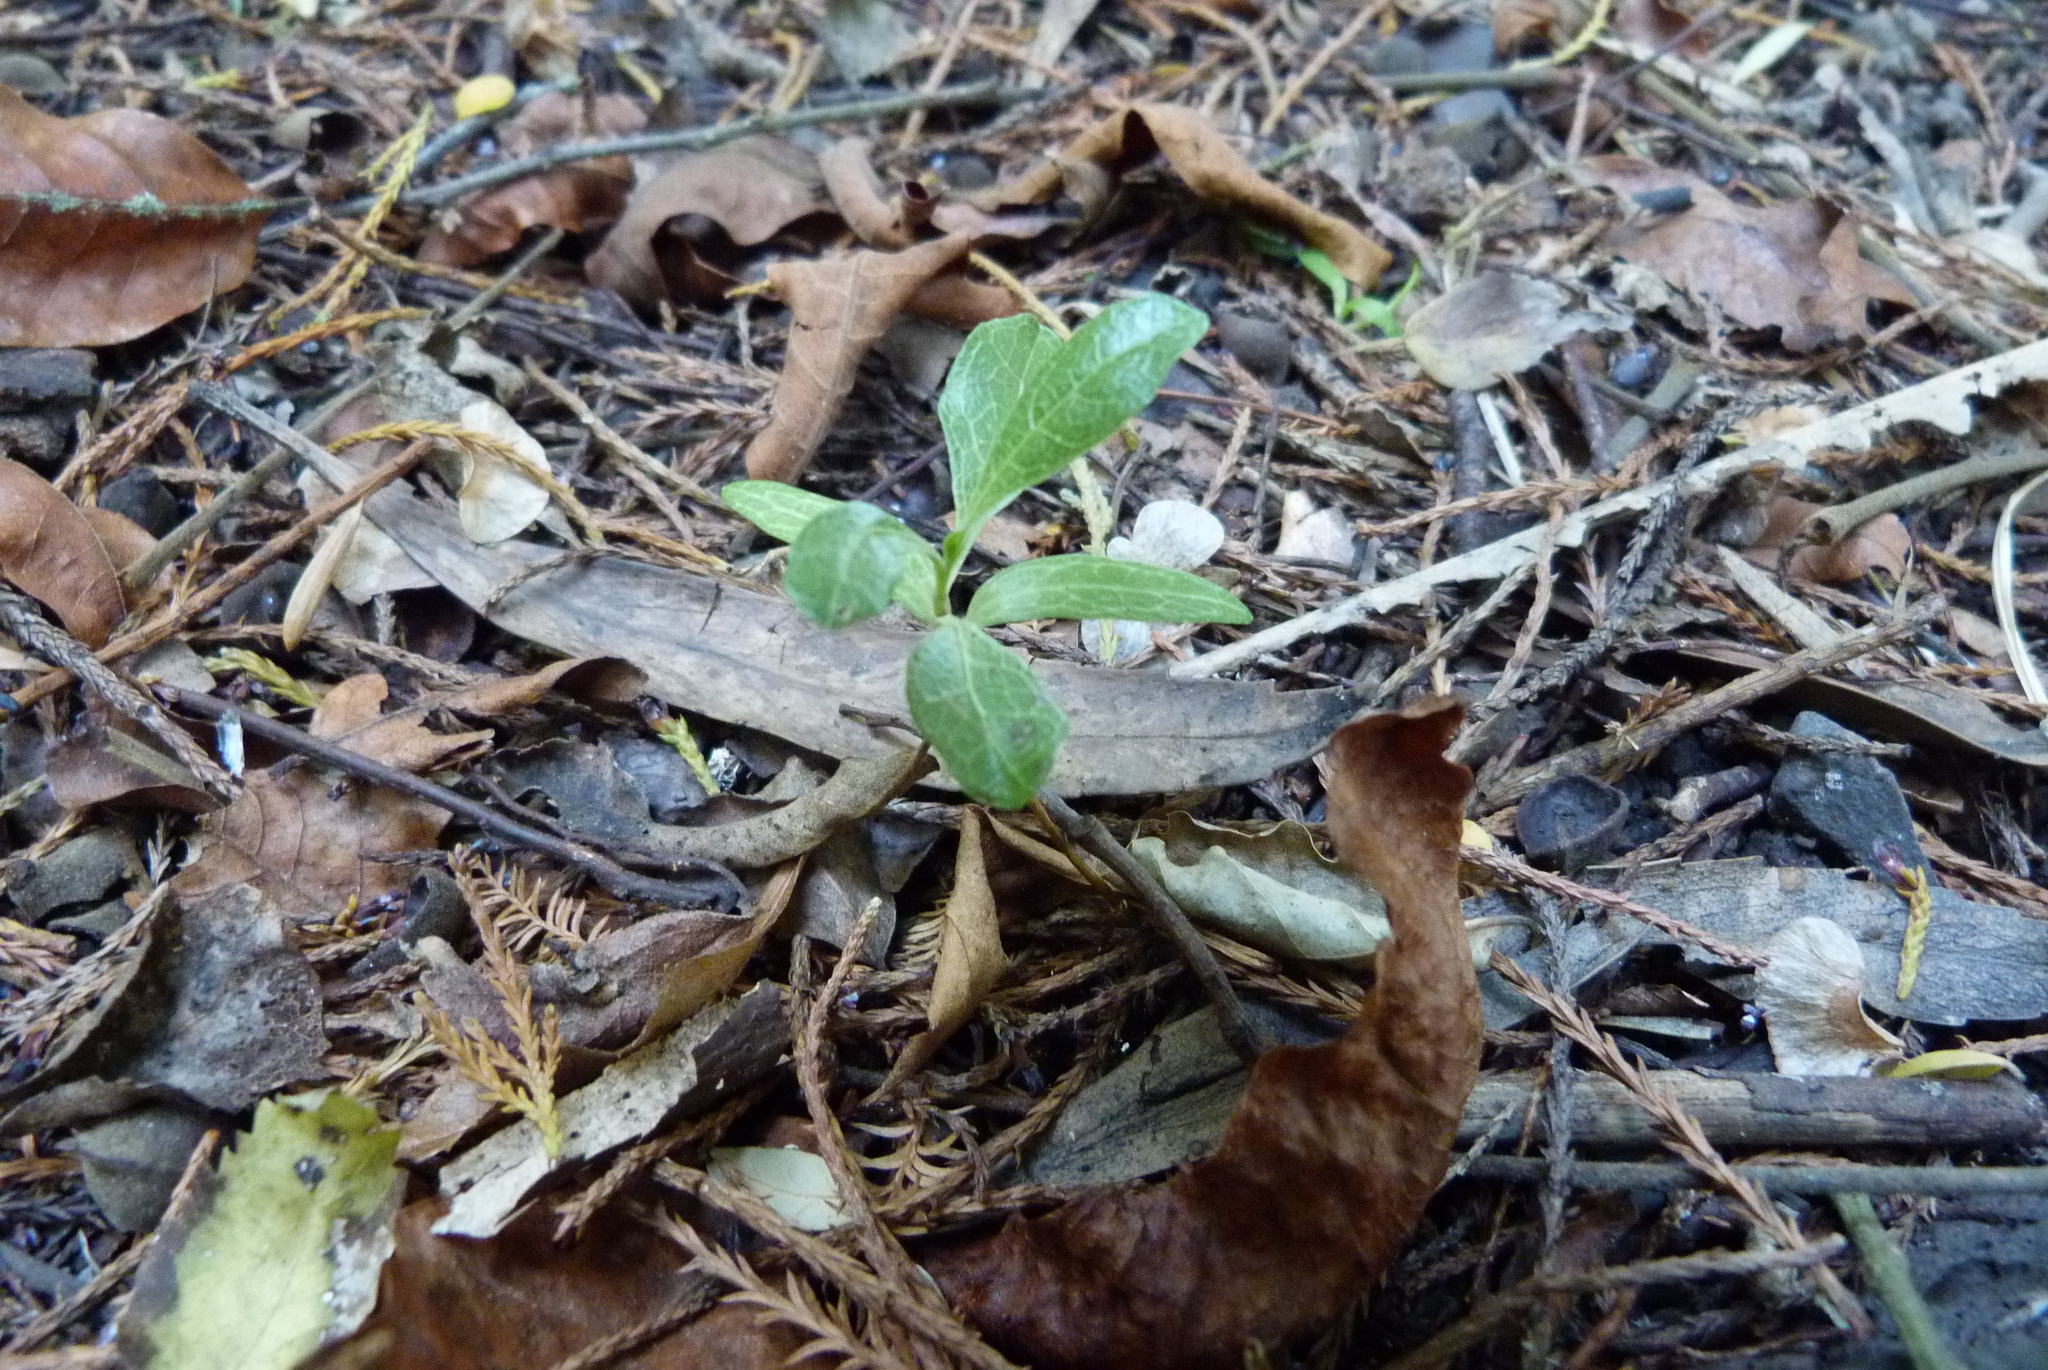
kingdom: Plantae
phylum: Tracheophyta
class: Magnoliopsida
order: Sapindales
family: Sapindaceae
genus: Dodonaea
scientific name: Dodonaea viscosa
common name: Hopbush
